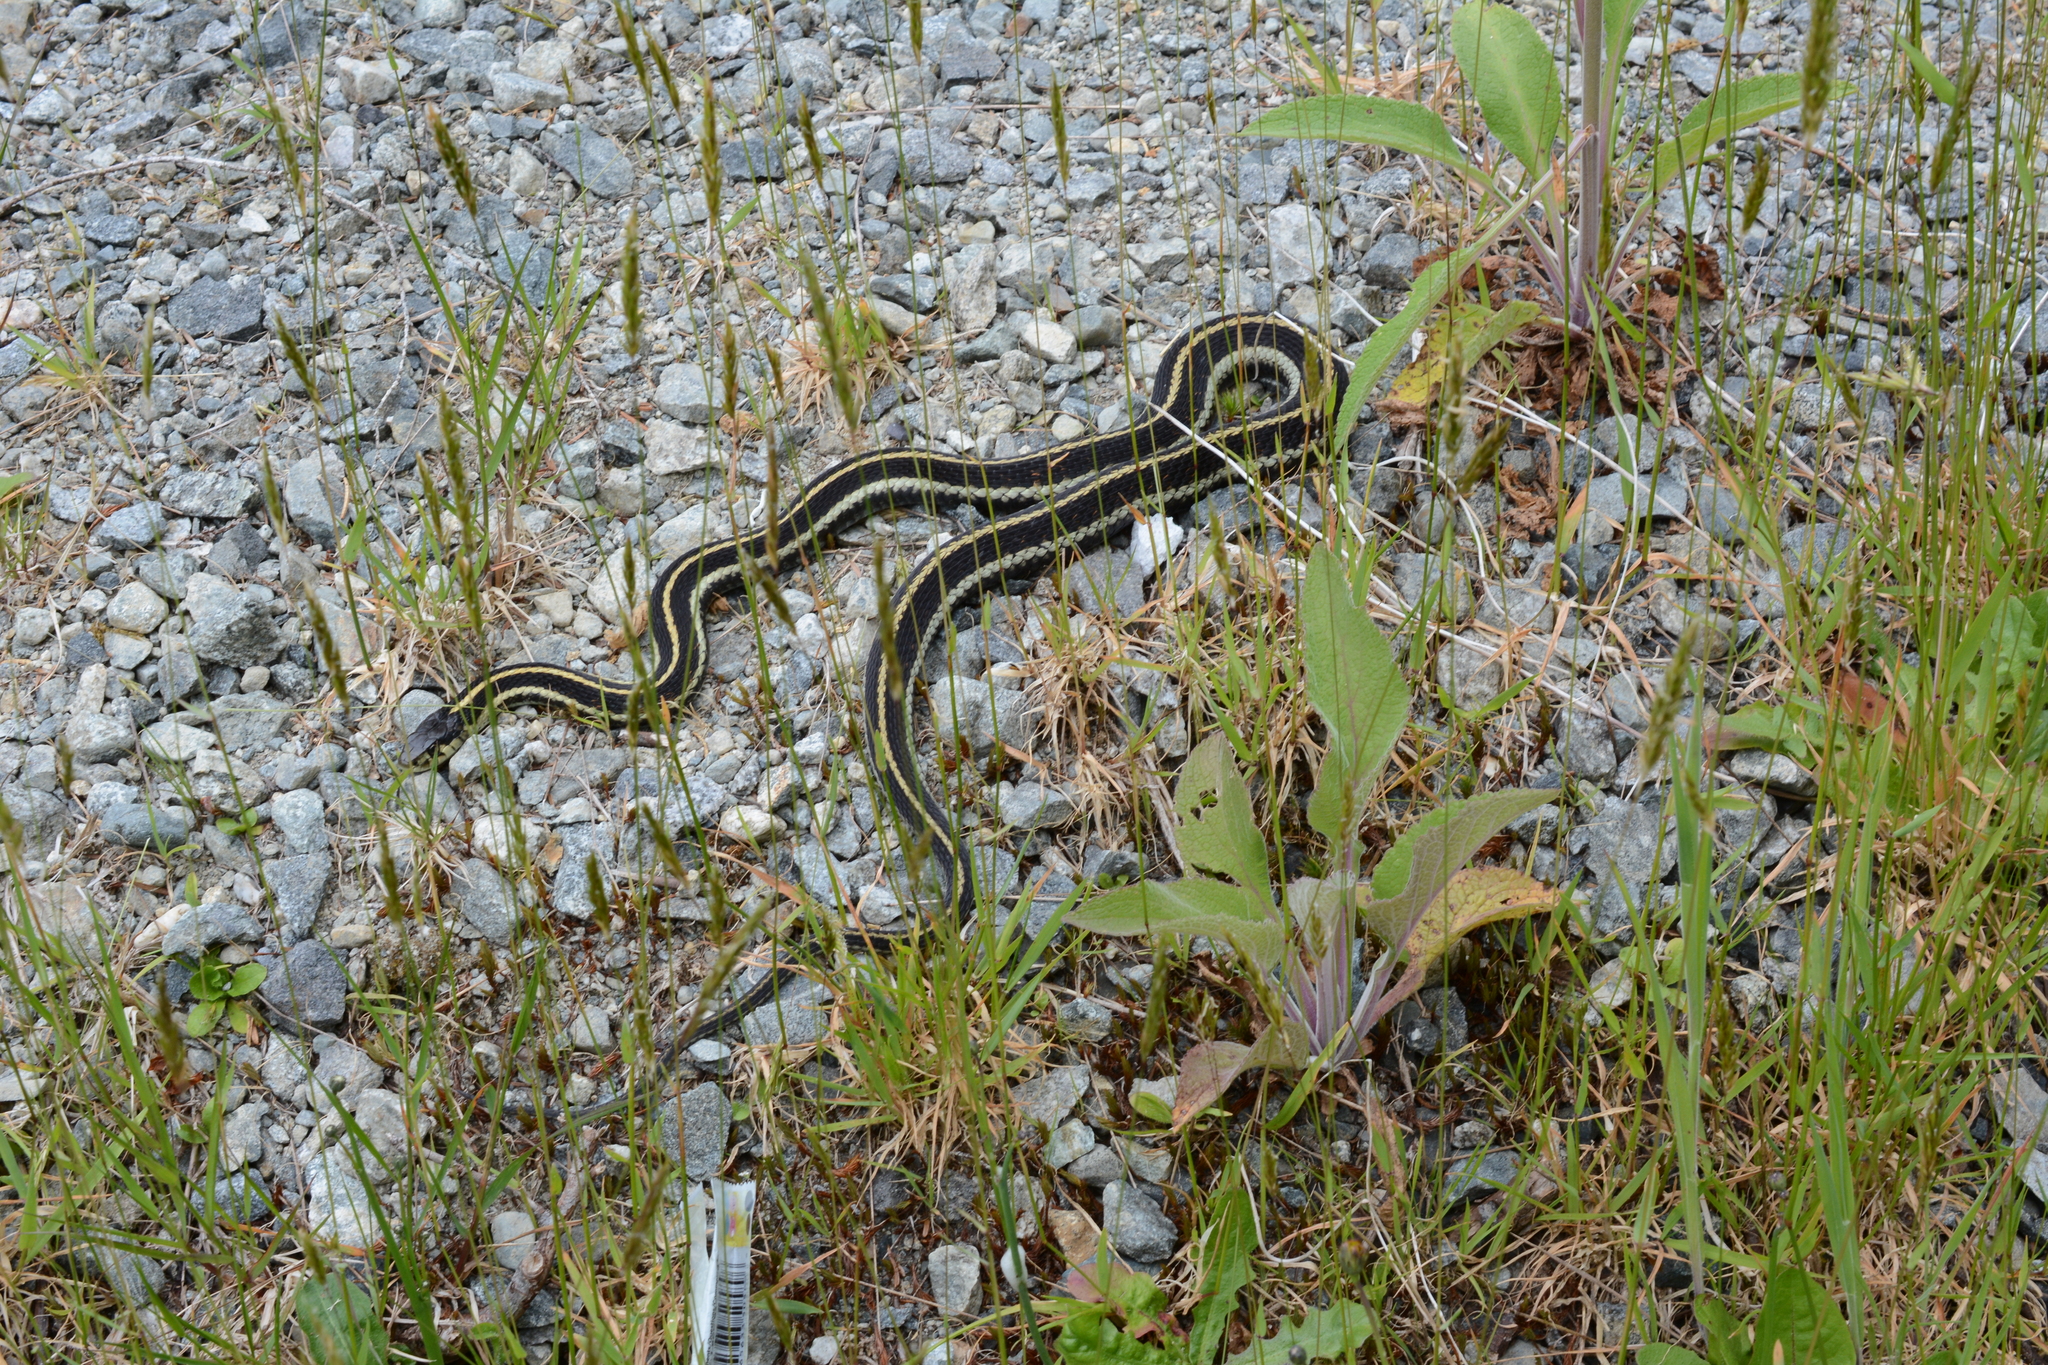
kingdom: Animalia
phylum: Chordata
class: Squamata
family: Colubridae
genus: Thamnophis
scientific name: Thamnophis sirtalis
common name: Common garter snake
